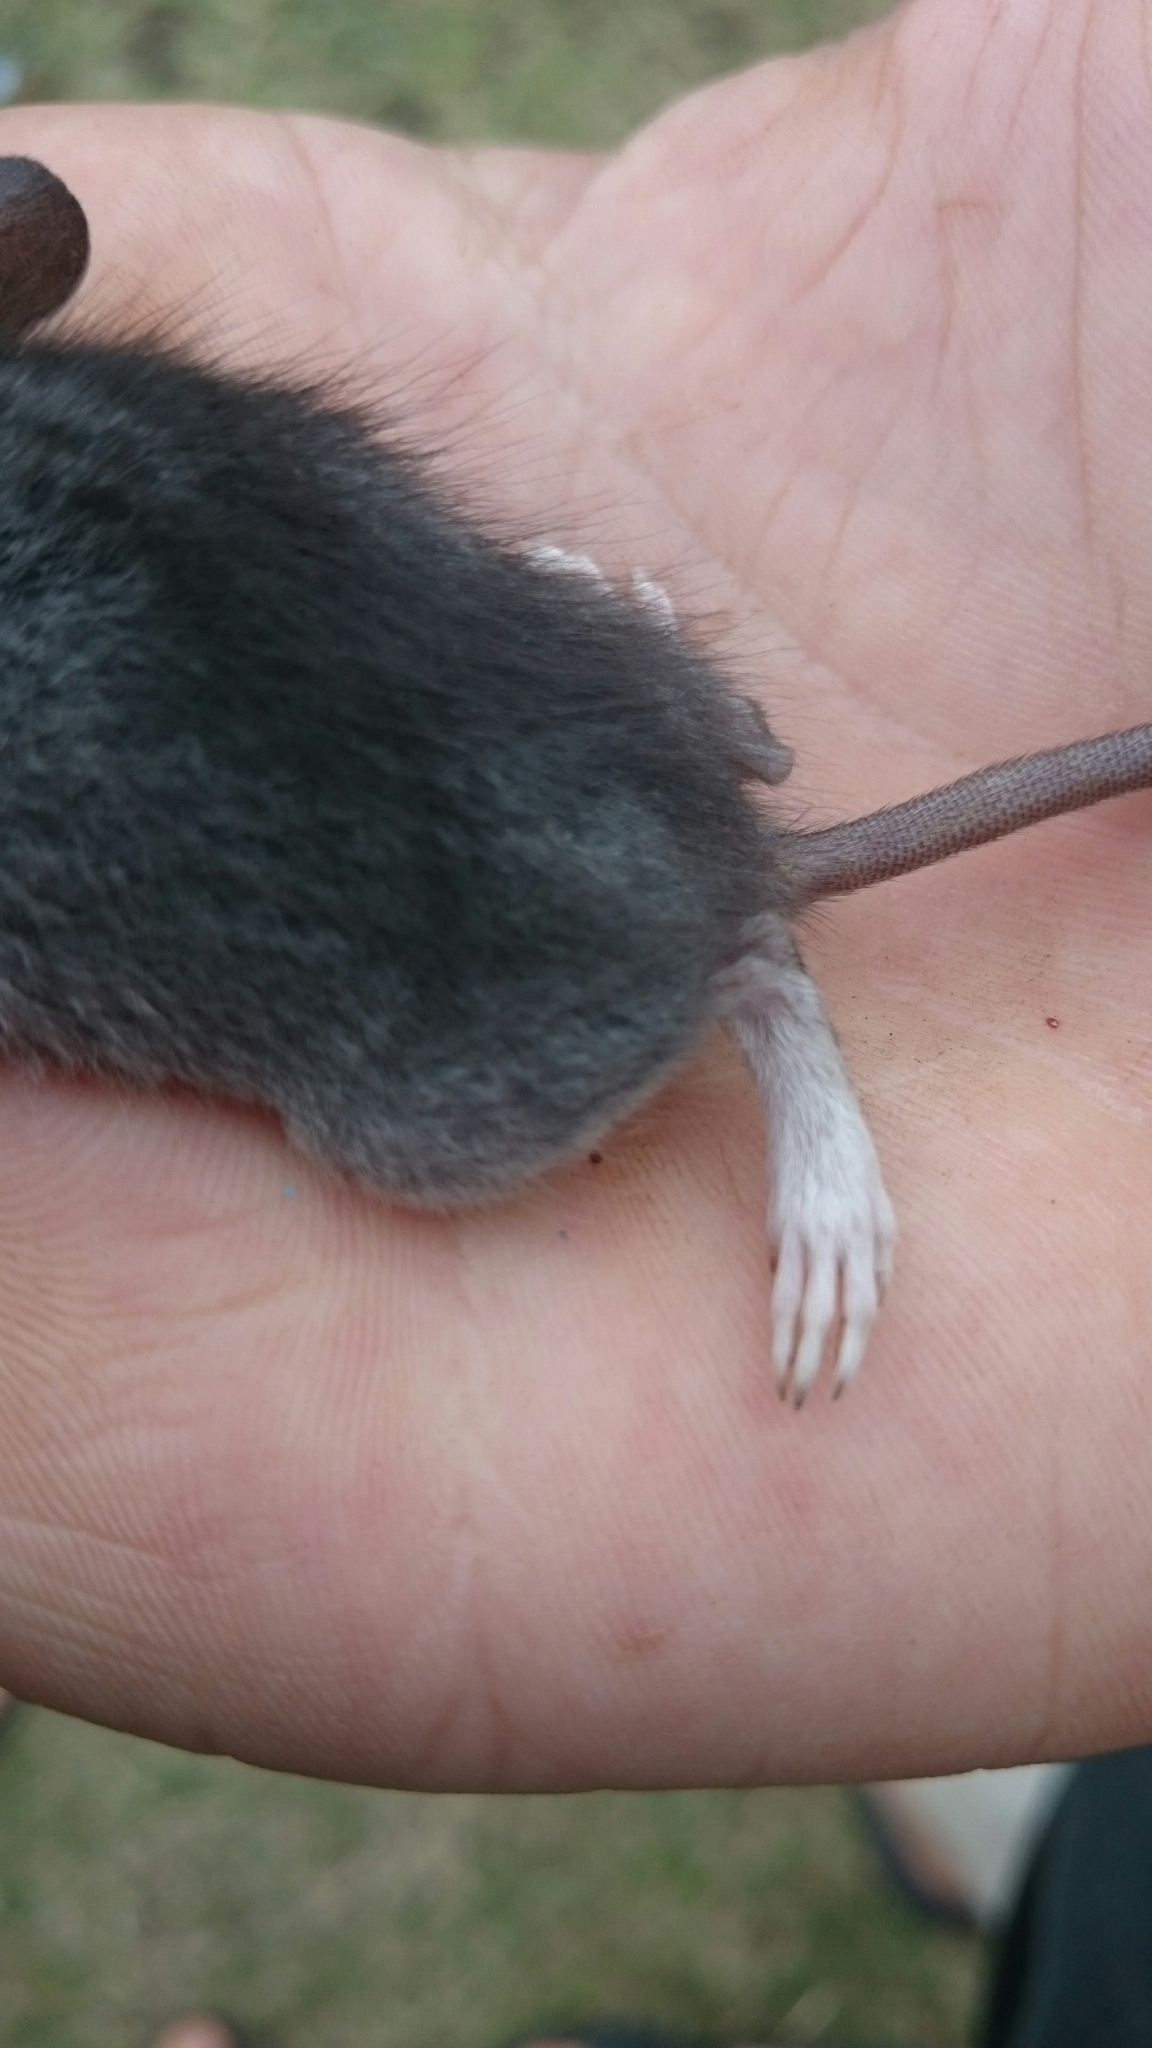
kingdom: Animalia
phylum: Chordata
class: Mammalia
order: Rodentia
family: Muridae
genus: Mastomys
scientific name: Mastomys natalensis
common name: Natal mastomys
